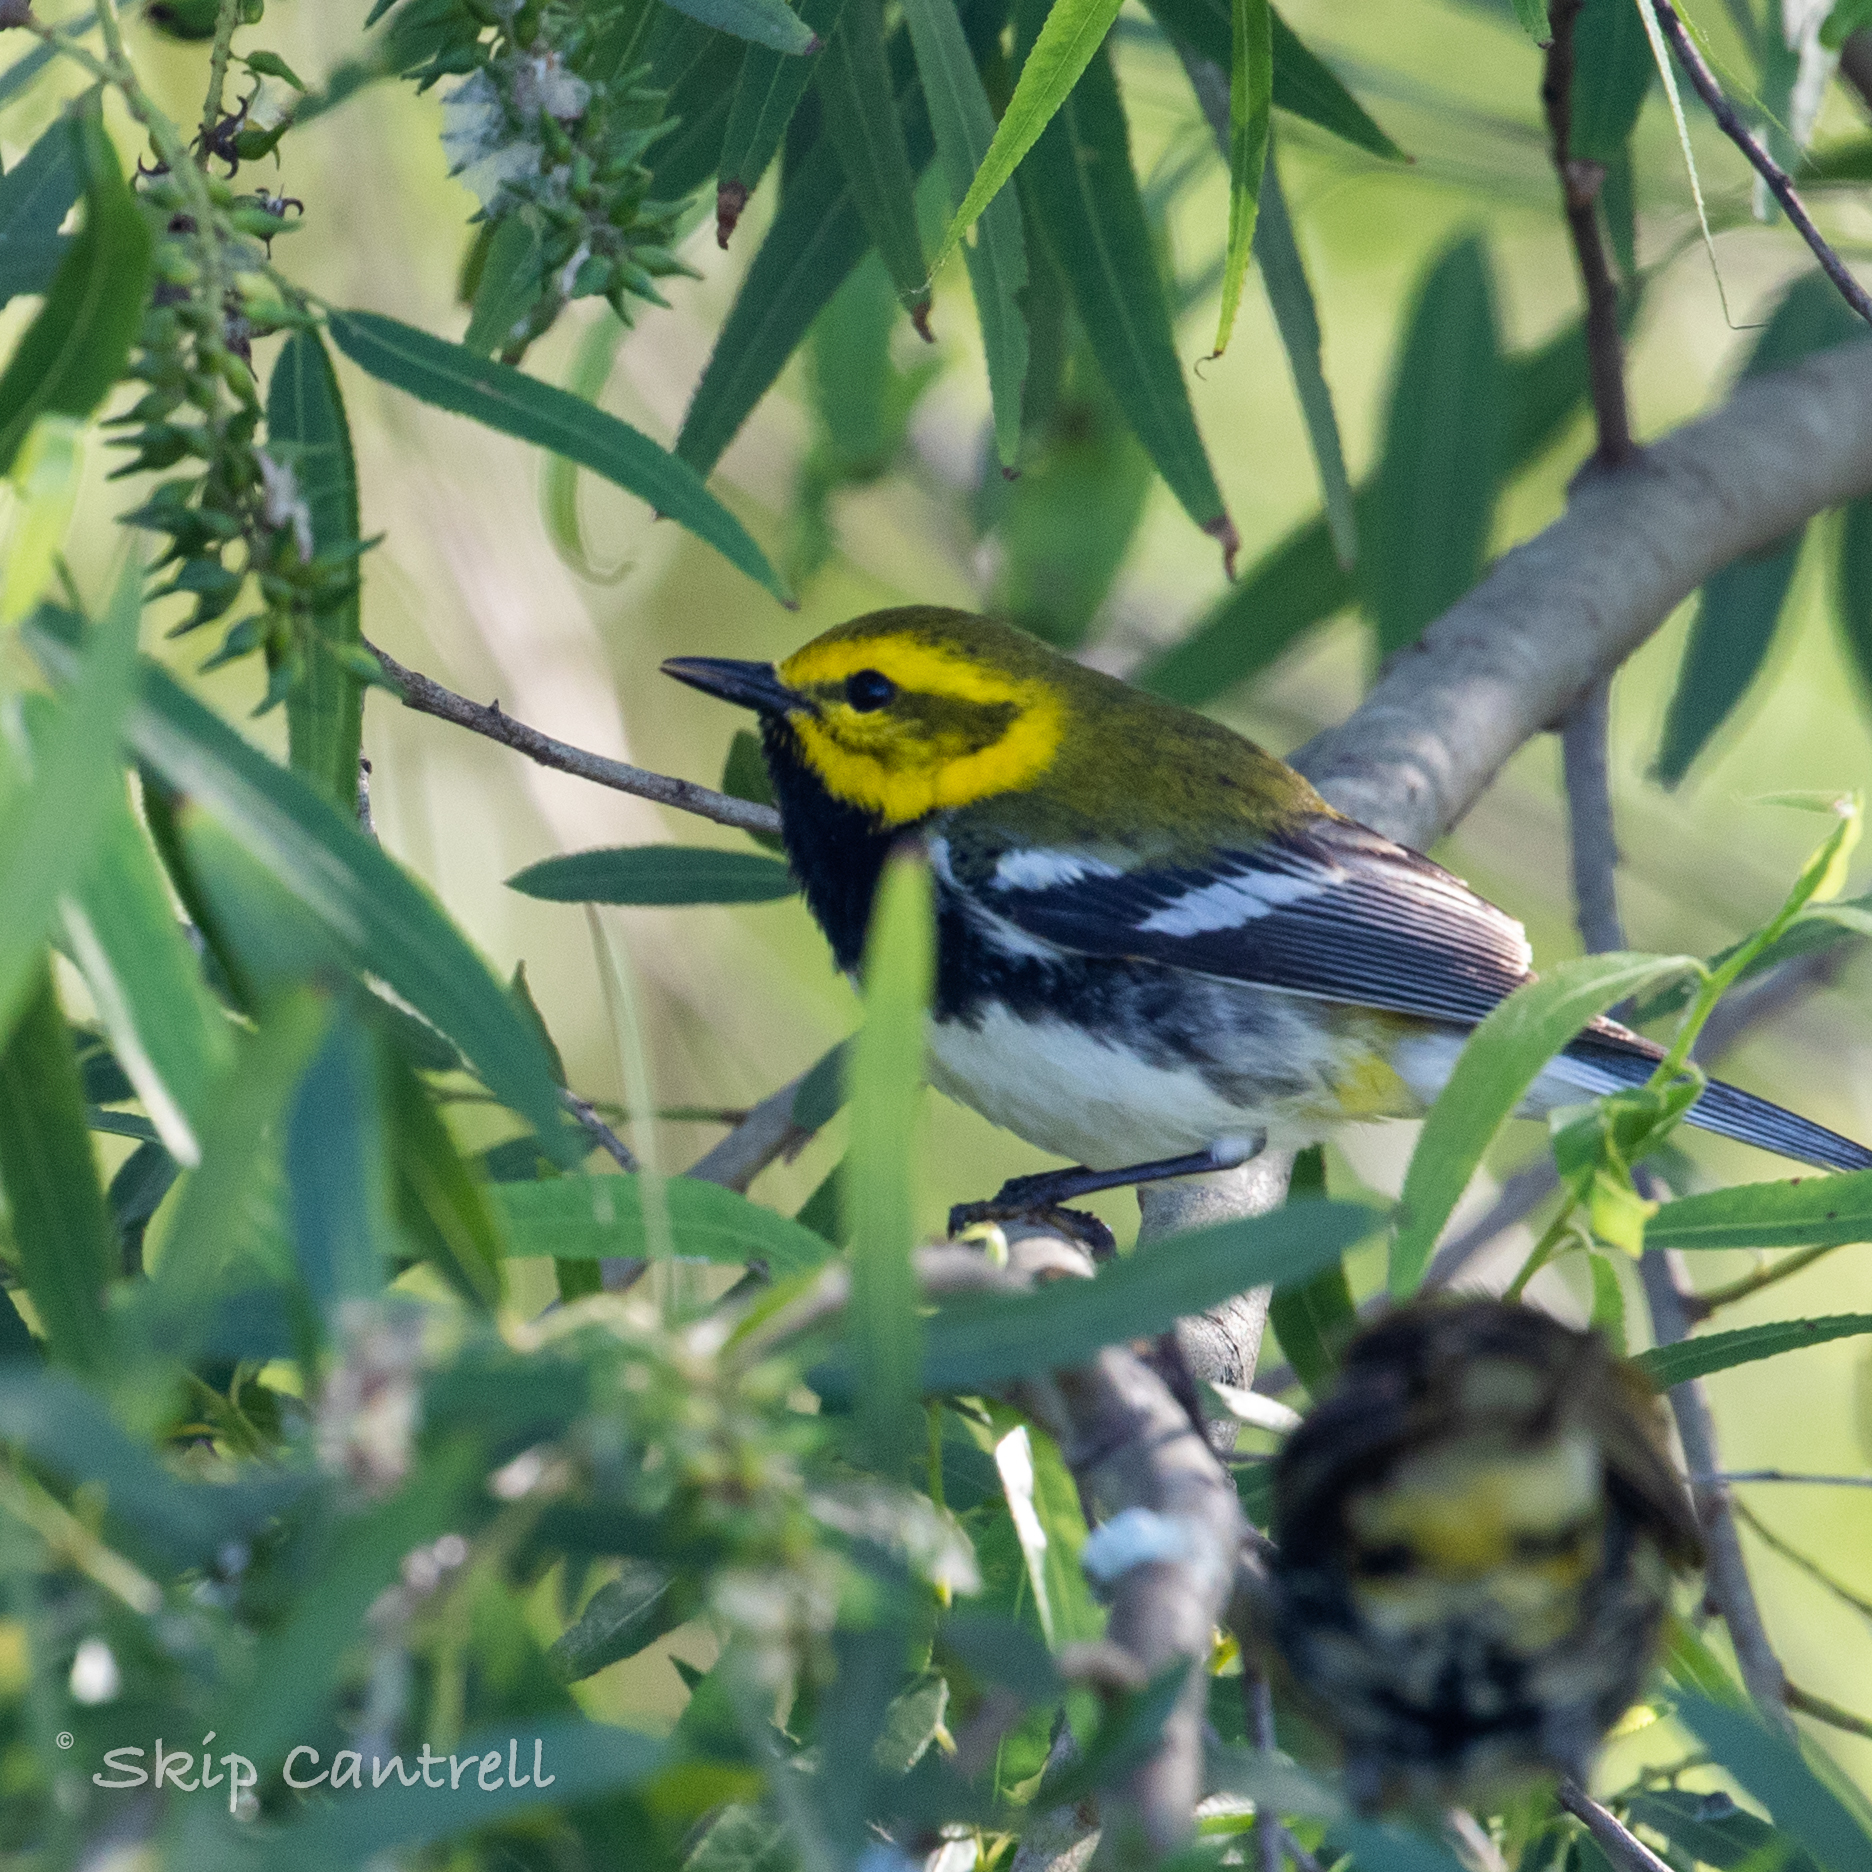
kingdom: Animalia
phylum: Chordata
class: Aves
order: Passeriformes
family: Parulidae
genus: Setophaga
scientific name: Setophaga virens
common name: Black-throated green warbler
